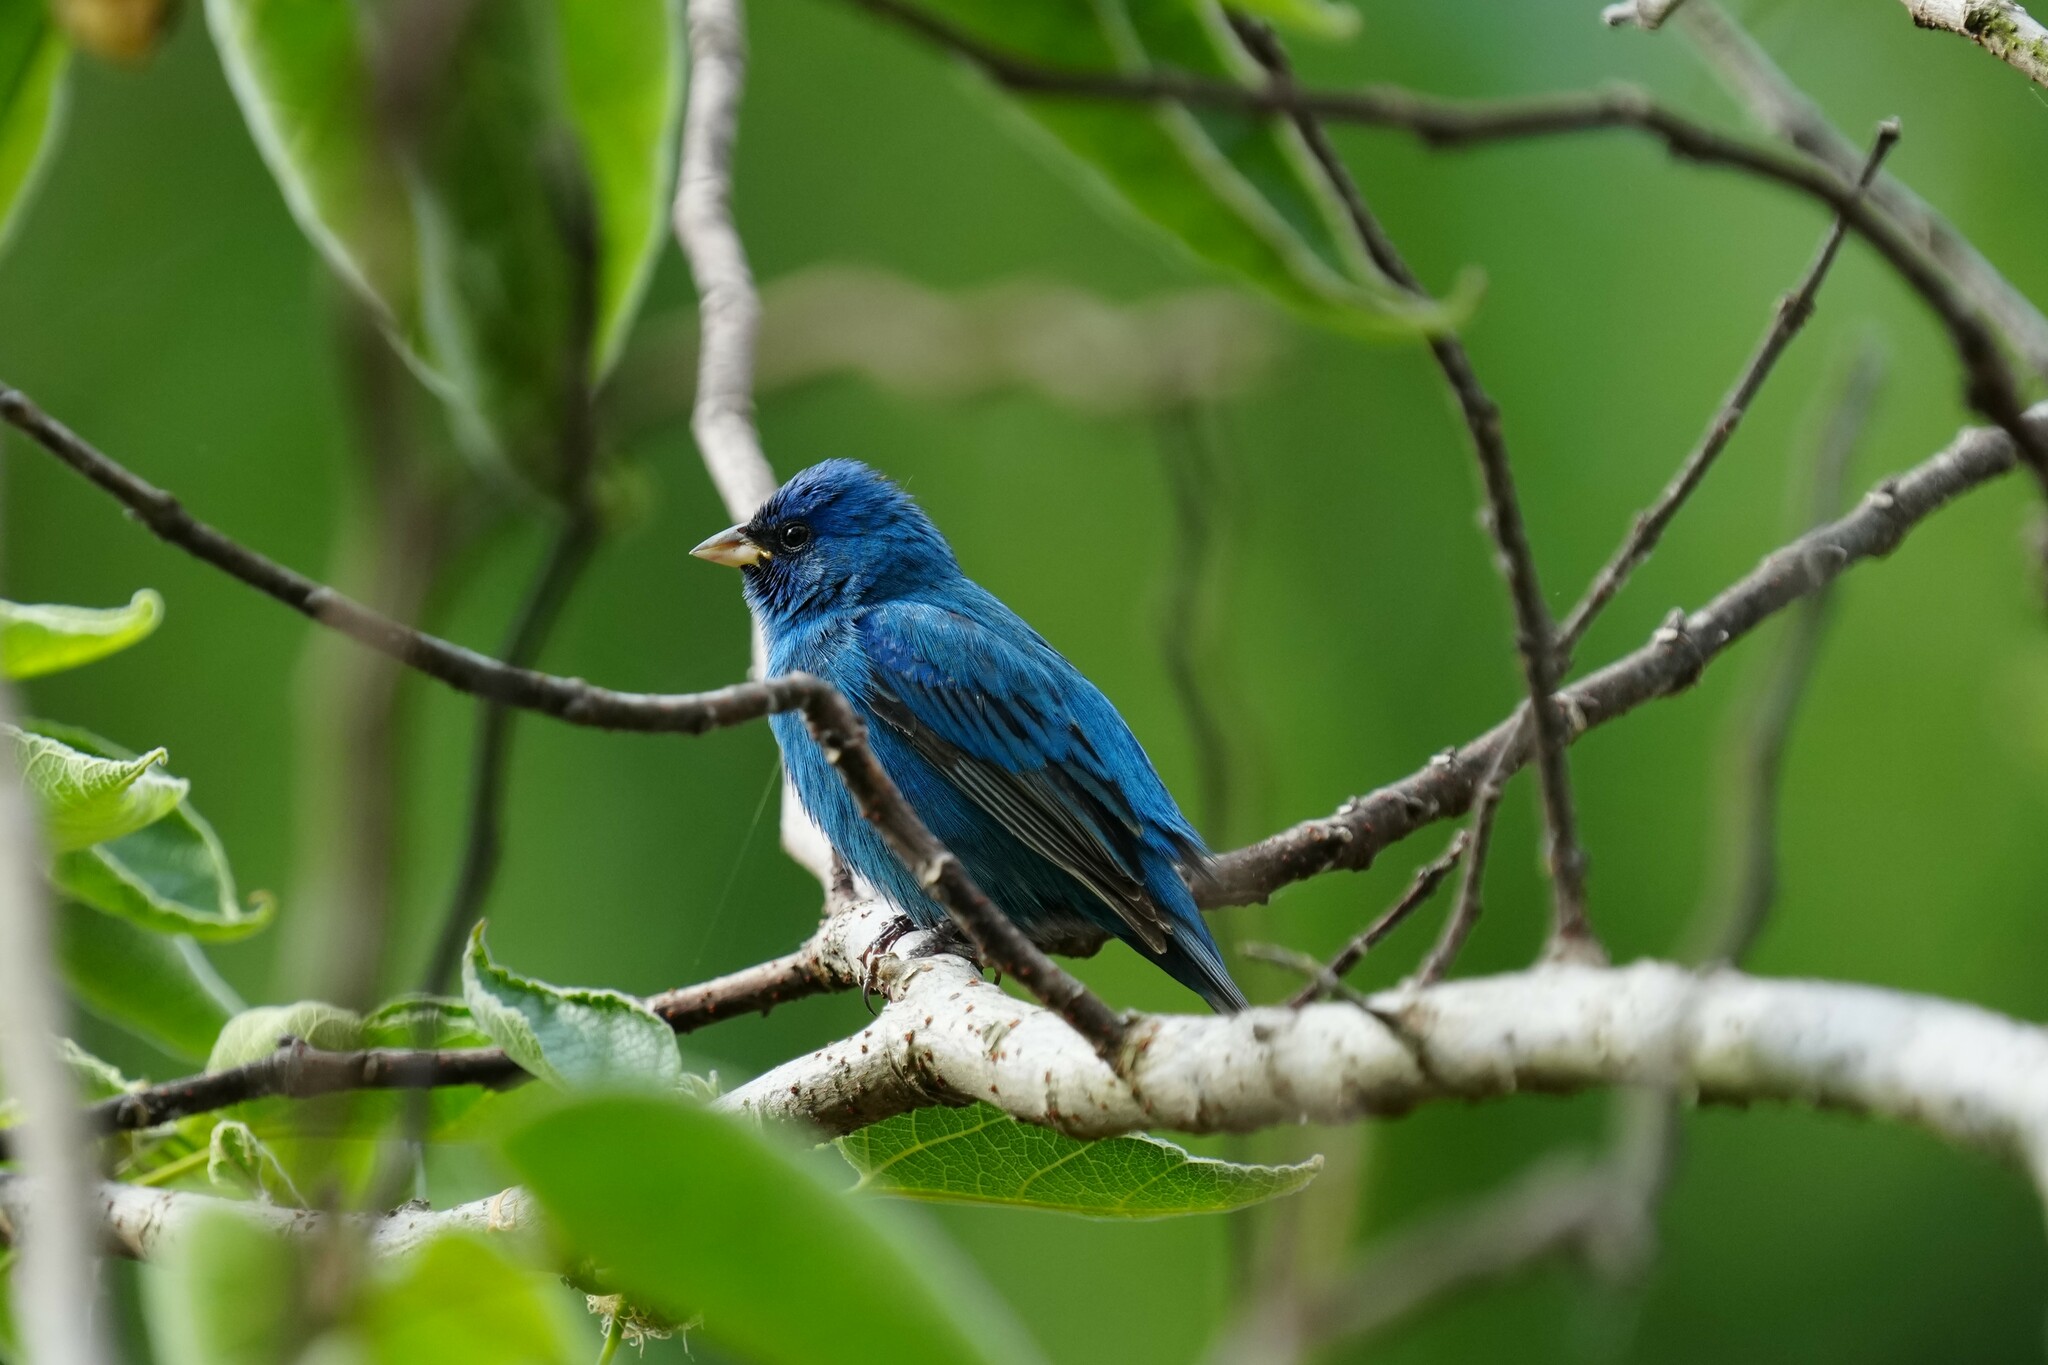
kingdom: Animalia
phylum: Chordata
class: Aves
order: Passeriformes
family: Cardinalidae
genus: Passerina
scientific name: Passerina cyanea
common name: Indigo bunting
